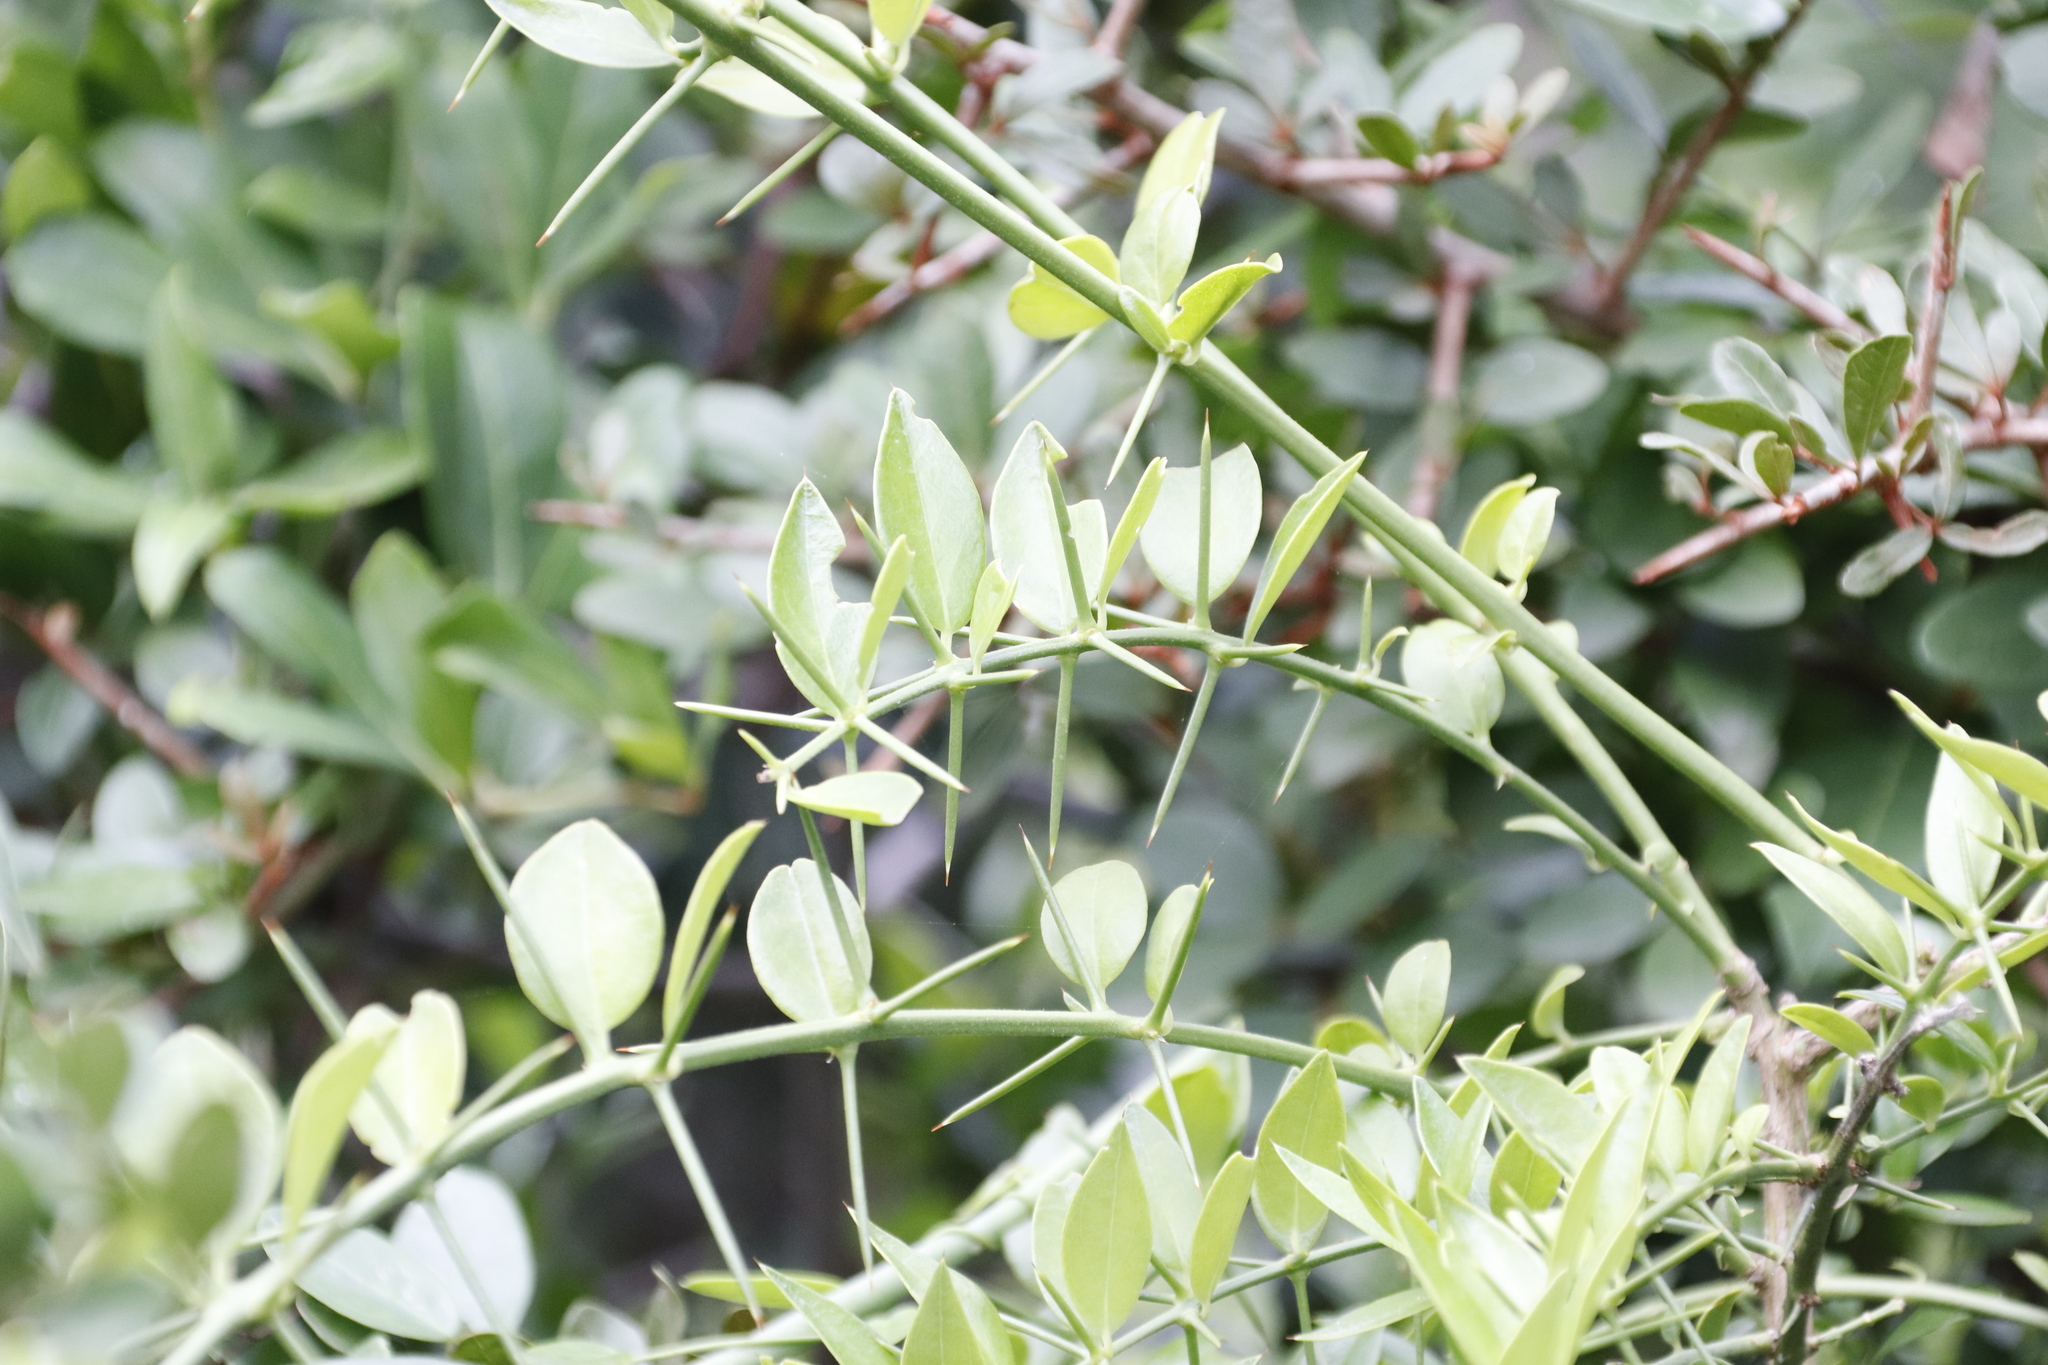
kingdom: Plantae
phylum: Tracheophyta
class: Magnoliopsida
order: Brassicales
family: Salvadoraceae
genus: Azima
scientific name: Azima tetracantha
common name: Needle bush
